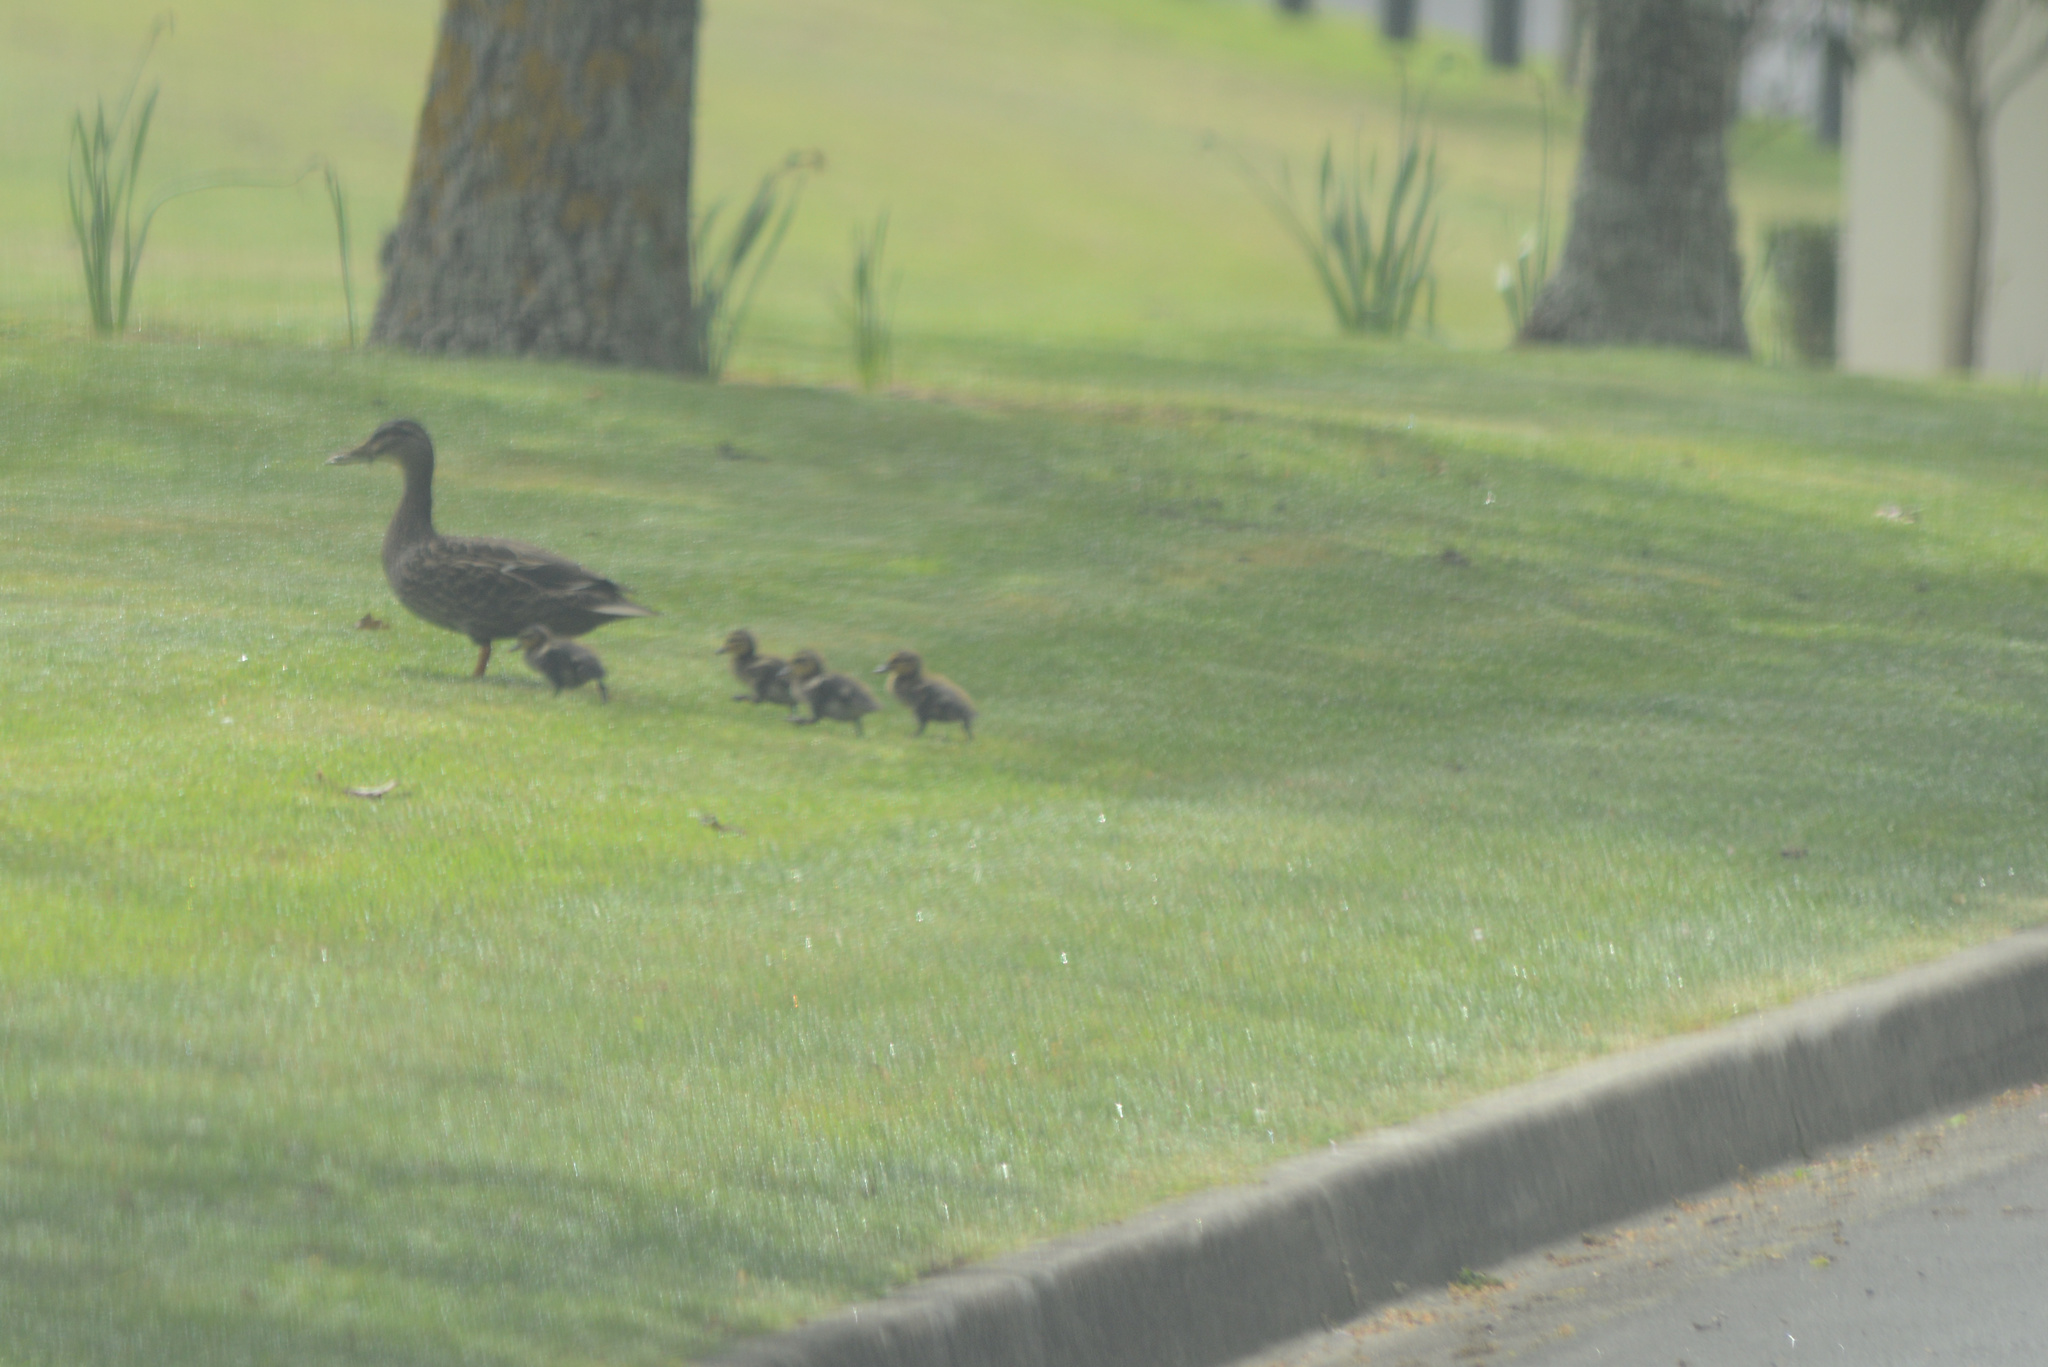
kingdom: Animalia
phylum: Chordata
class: Aves
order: Anseriformes
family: Anatidae
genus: Anas
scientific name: Anas
